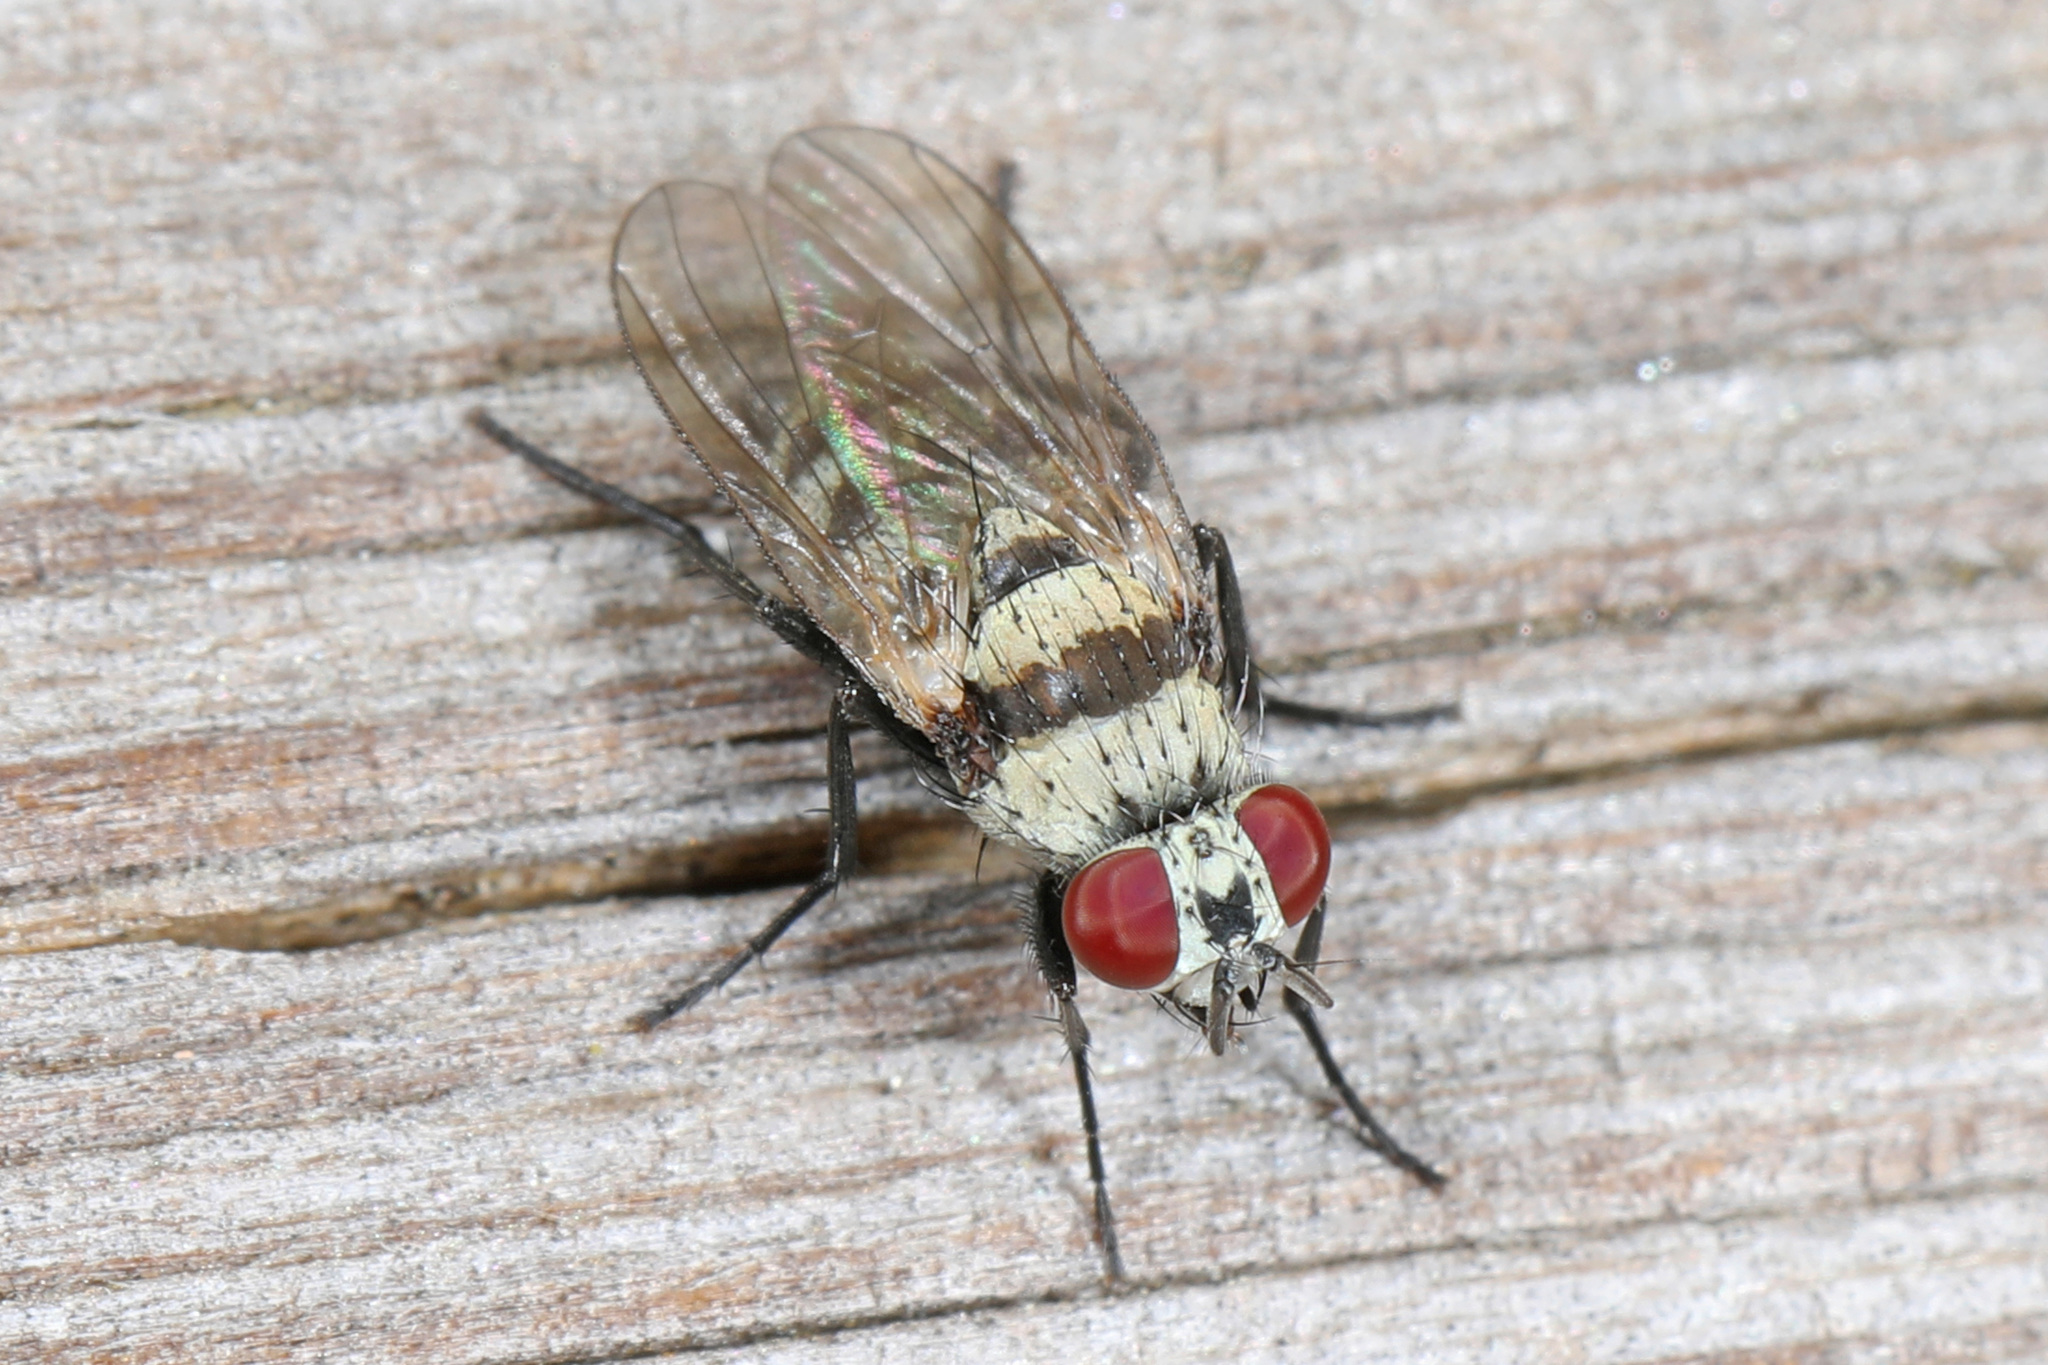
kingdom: Animalia
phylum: Arthropoda
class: Insecta
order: Diptera
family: Anthomyiidae
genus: Anthomyia
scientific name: Anthomyia illocata
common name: Fly
